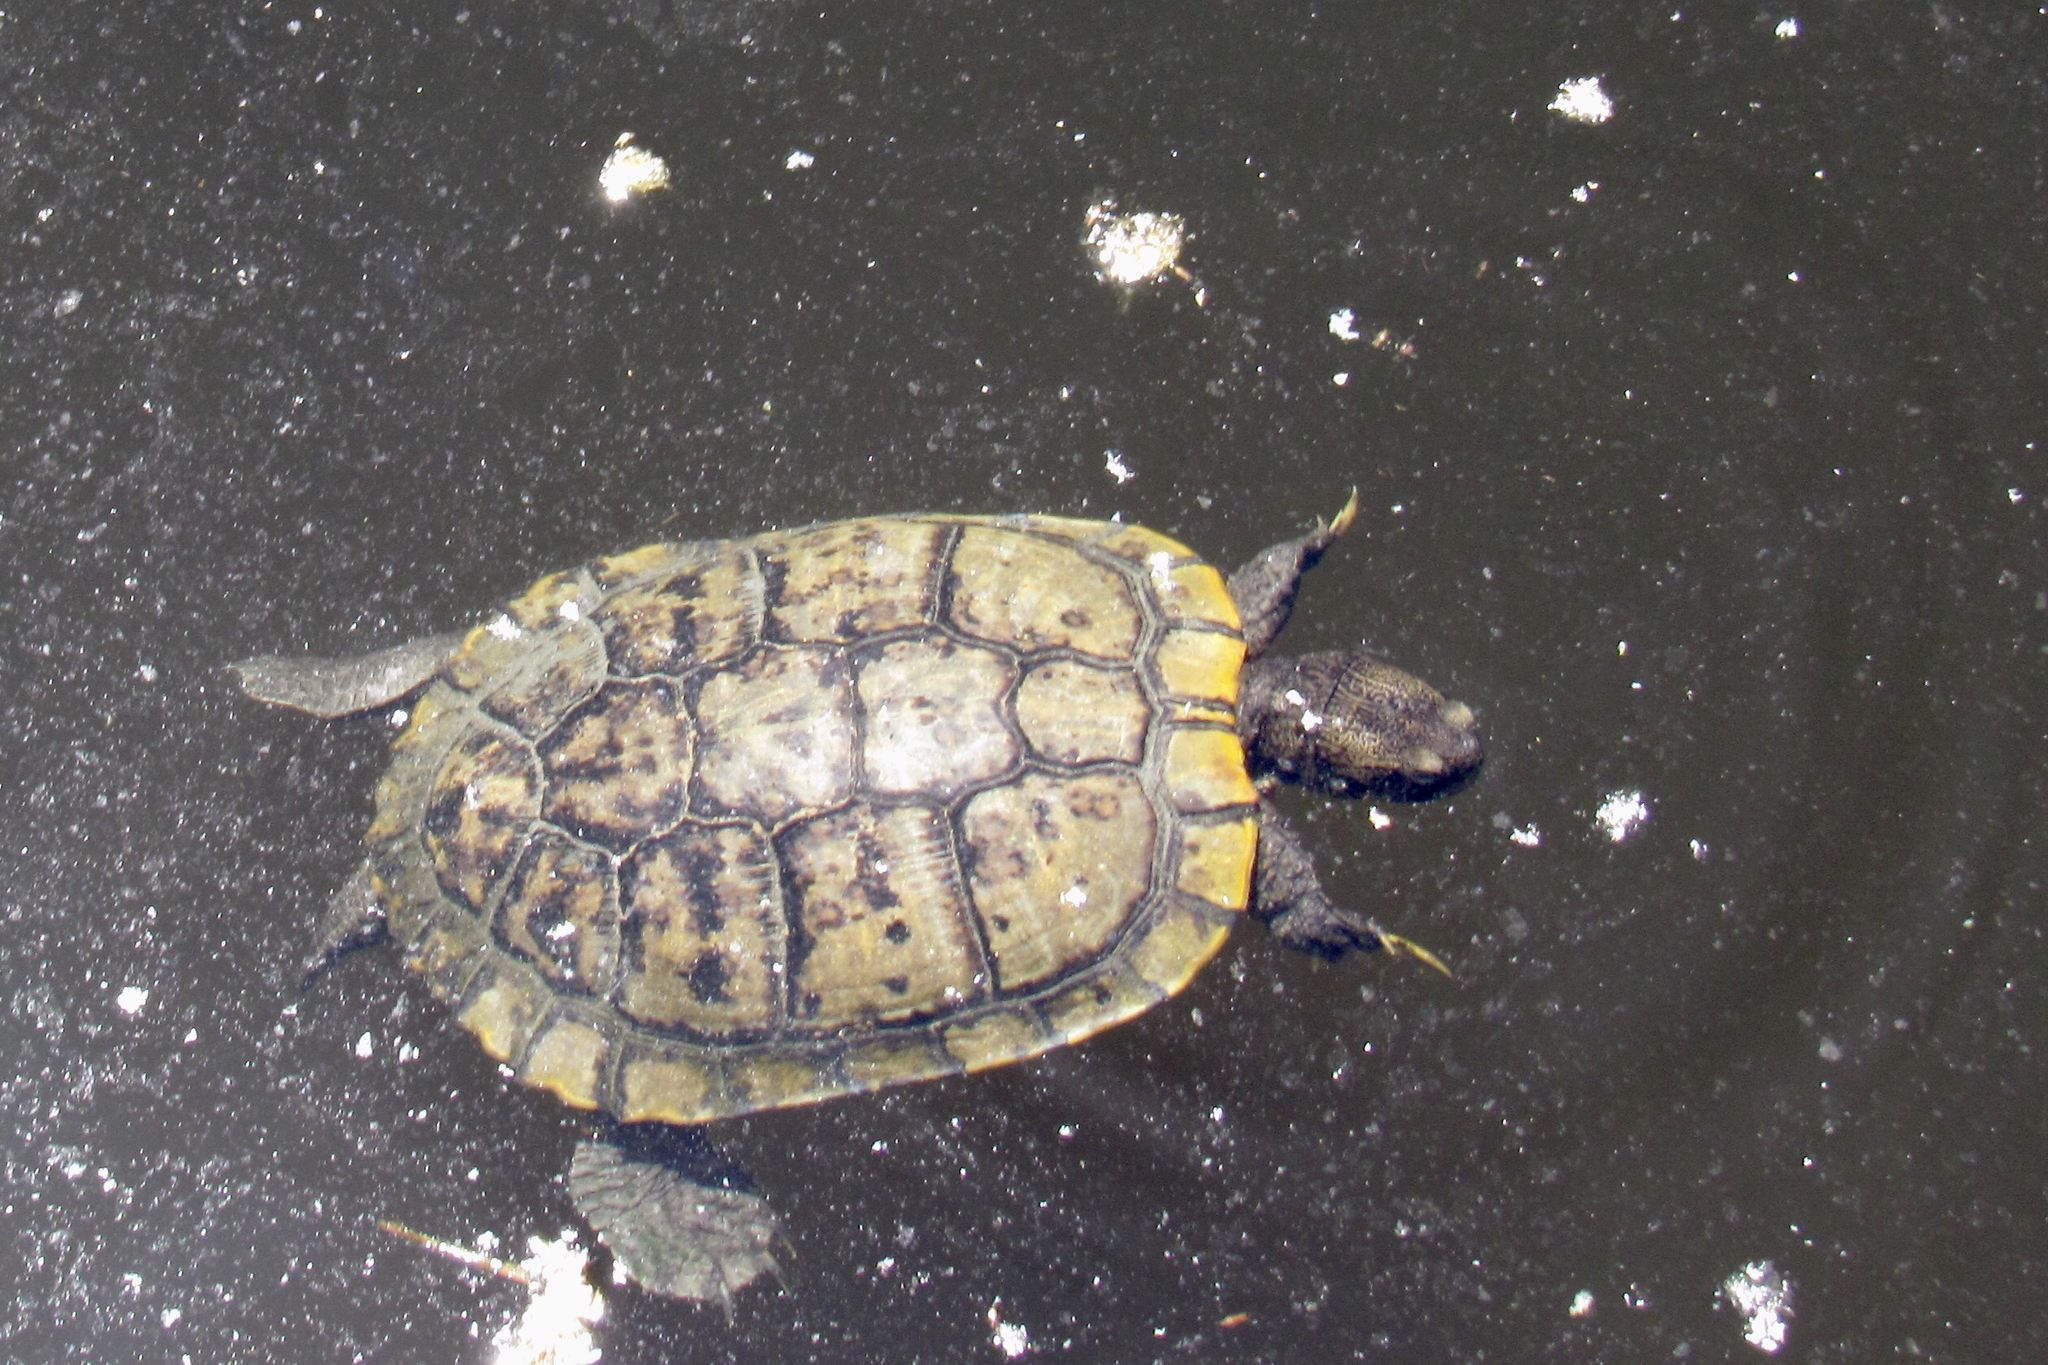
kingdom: Animalia
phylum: Chordata
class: Testudines
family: Emydidae
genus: Trachemys
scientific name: Trachemys scripta
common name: Slider
